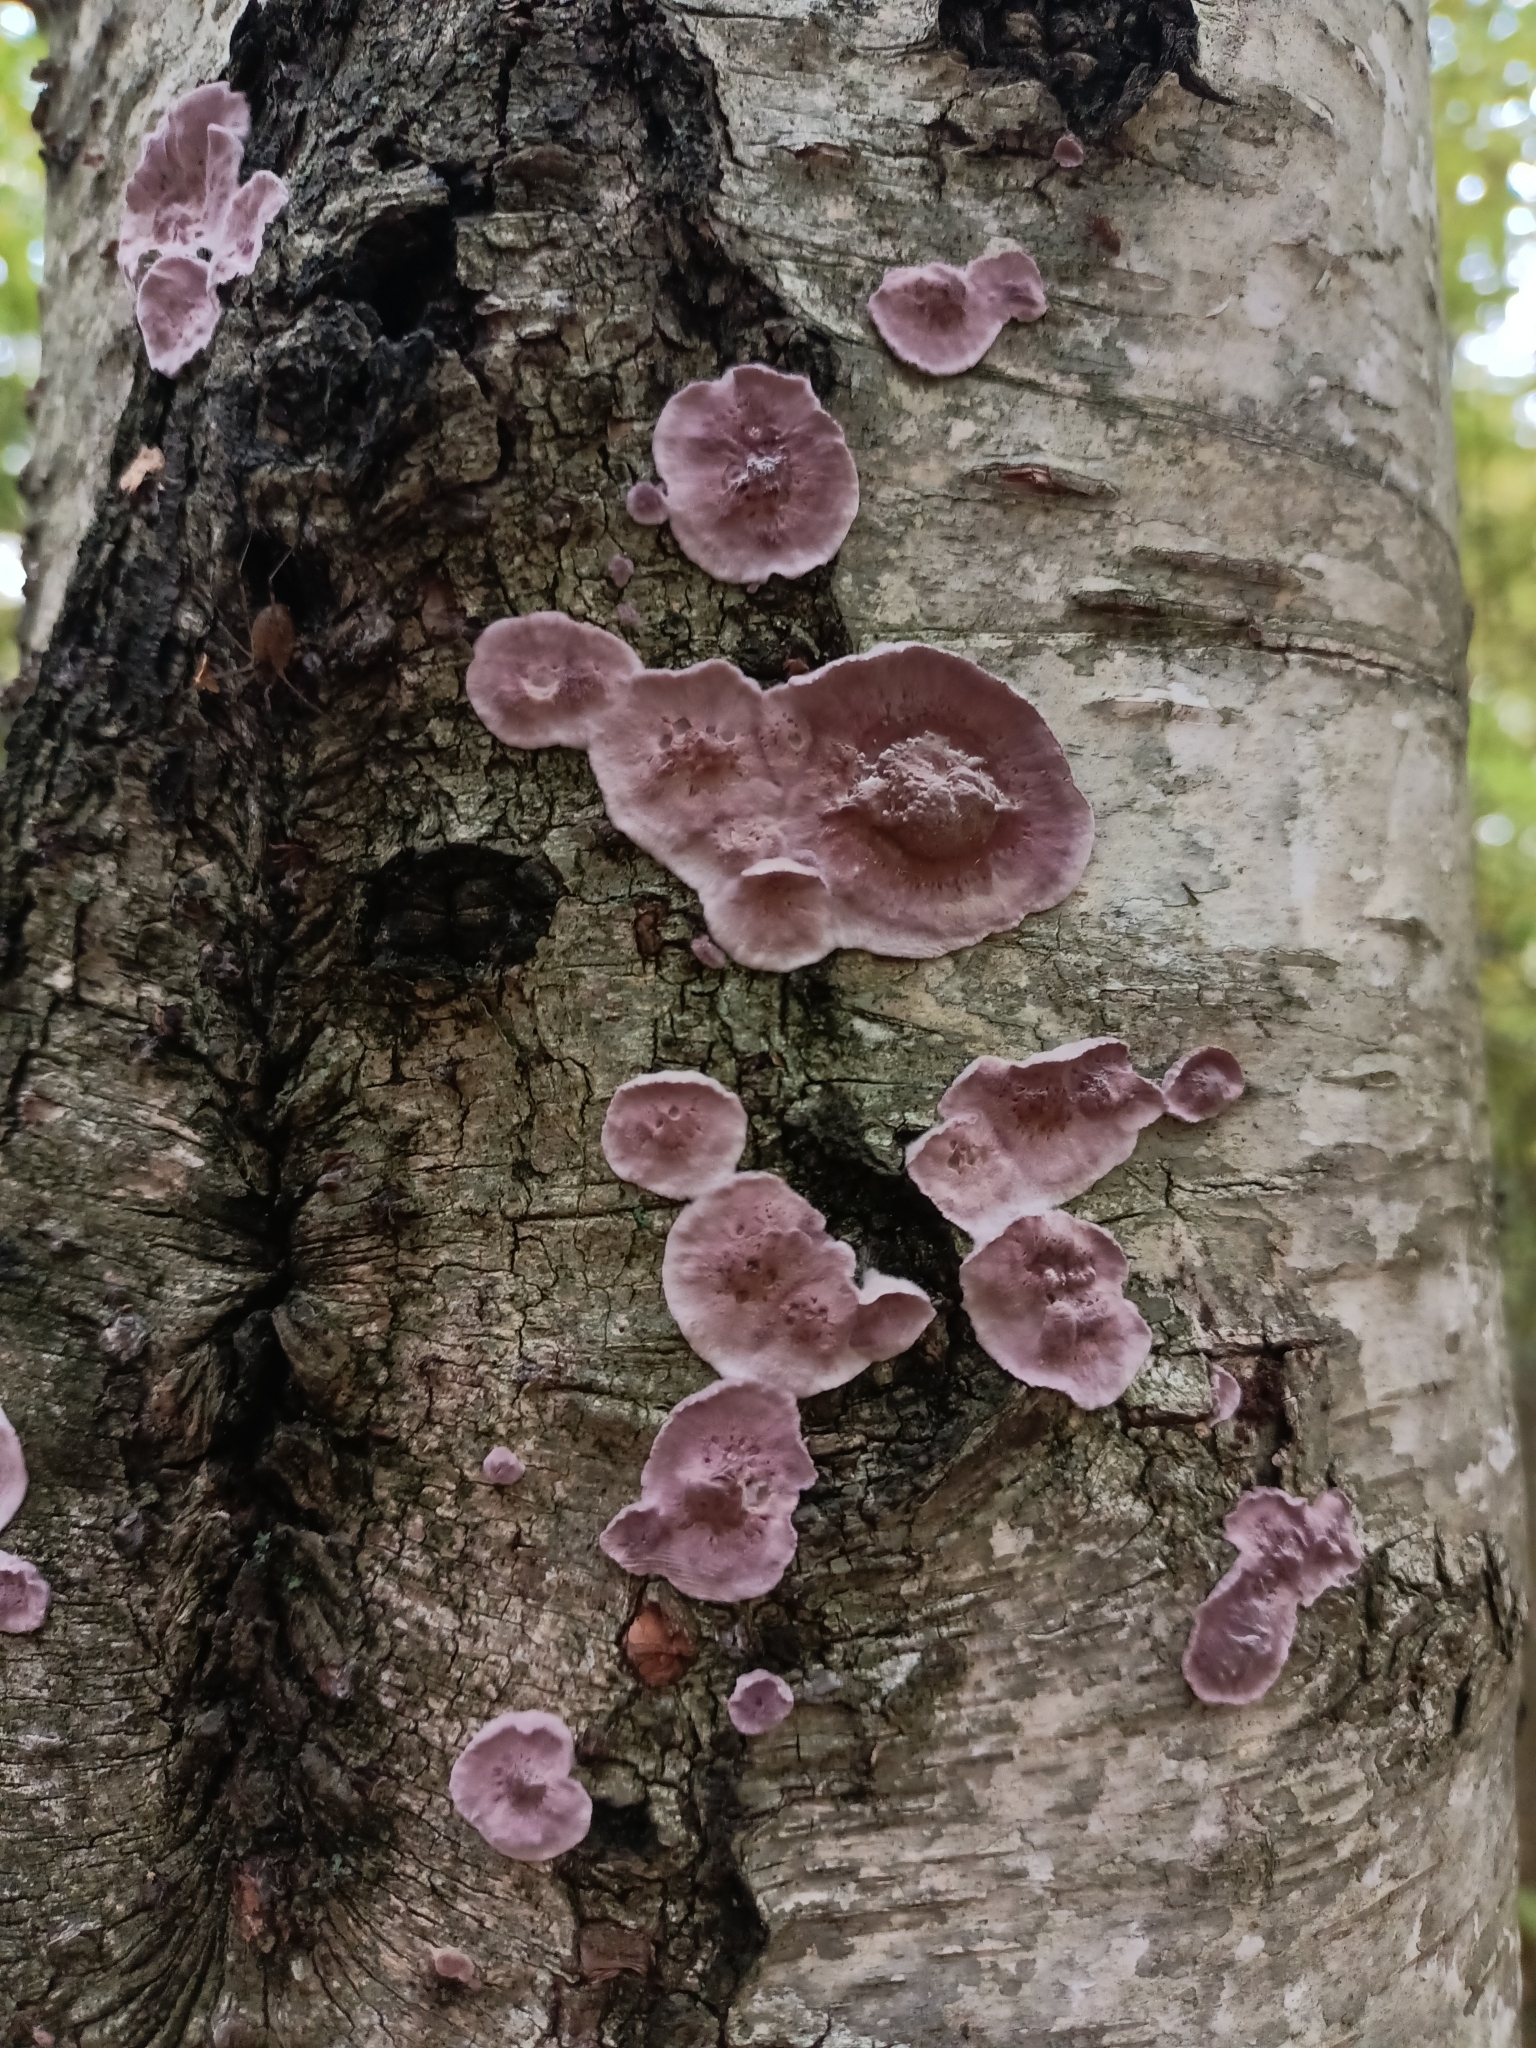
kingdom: Fungi
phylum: Basidiomycota
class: Agaricomycetes
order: Agaricales
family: Cyphellaceae
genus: Chondrostereum
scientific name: Chondrostereum purpureum
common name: Silver leaf disease
